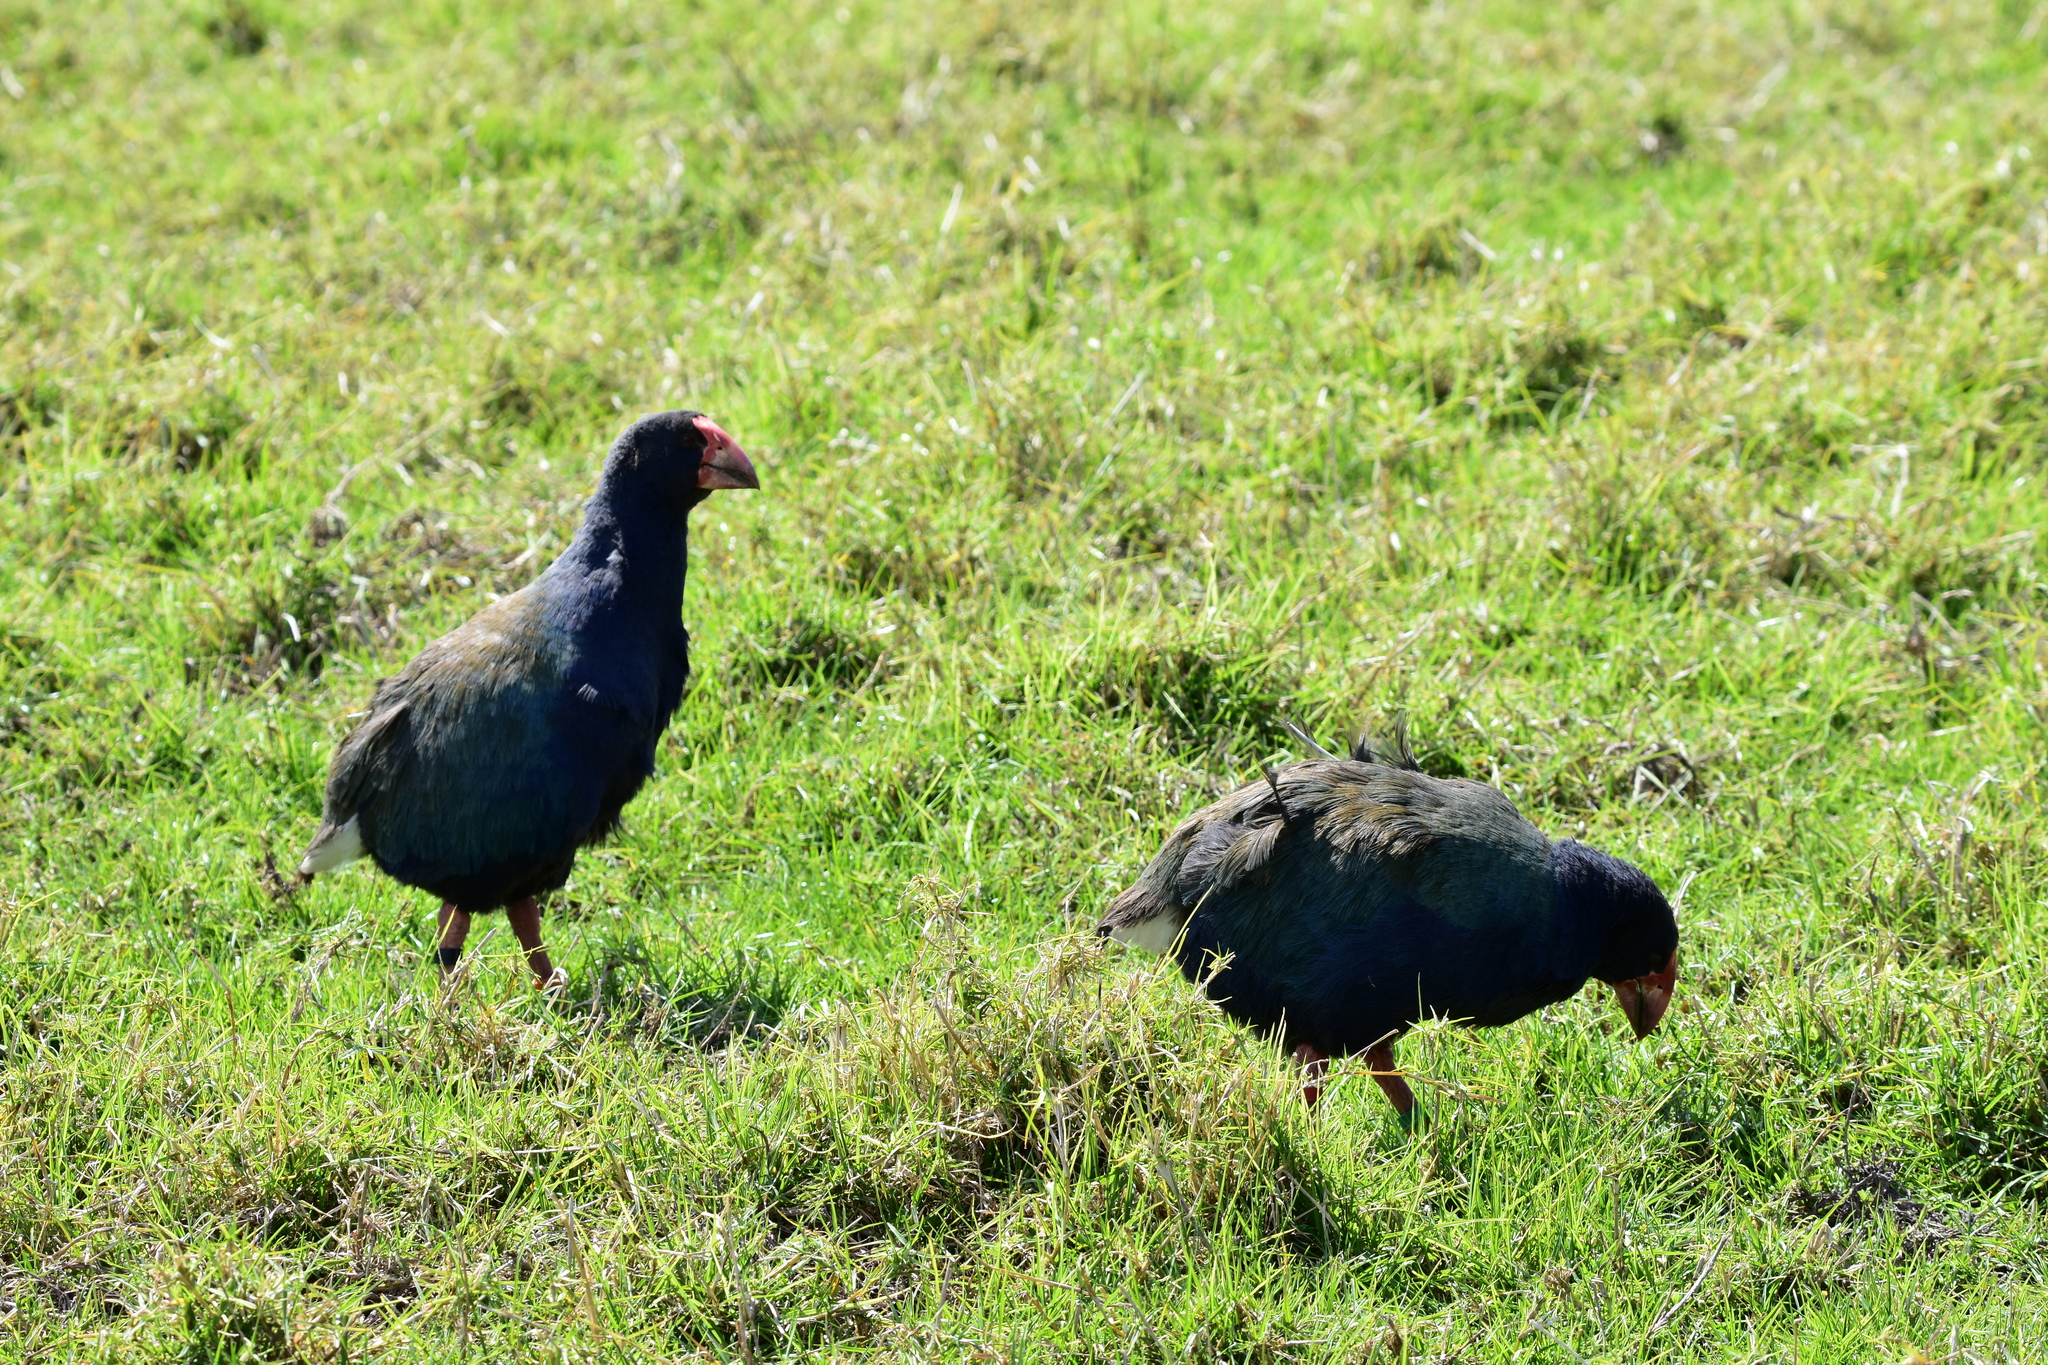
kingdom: Animalia
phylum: Chordata
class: Aves
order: Gruiformes
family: Rallidae
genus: Porphyrio
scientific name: Porphyrio hochstetteri
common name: South island takahe
